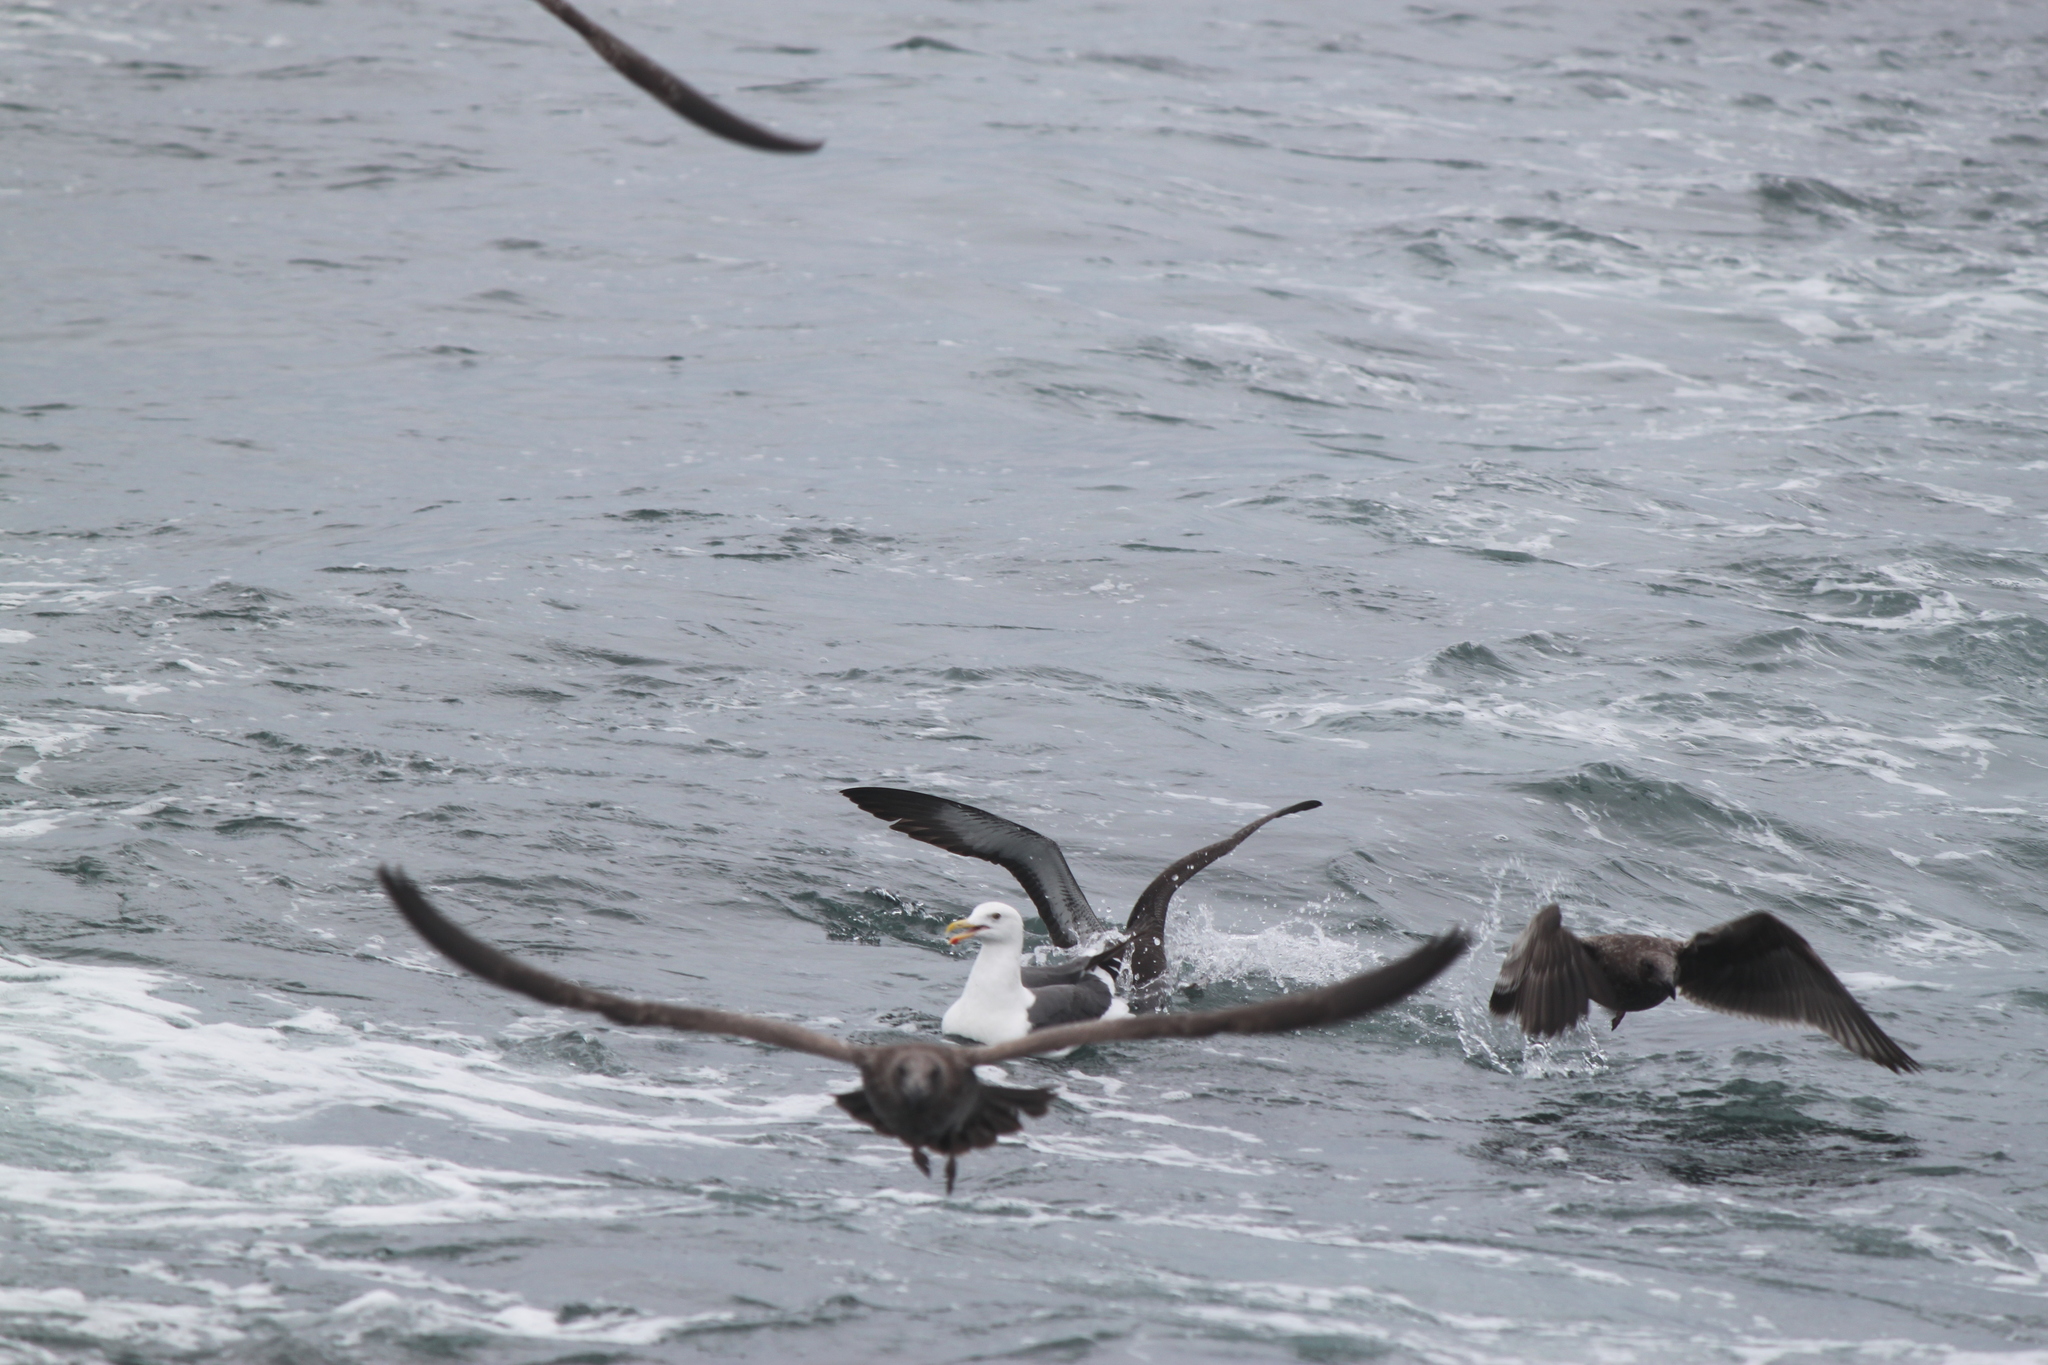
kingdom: Animalia
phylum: Chordata
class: Aves
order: Charadriiformes
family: Laridae
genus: Larus
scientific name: Larus occidentalis
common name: Western gull
